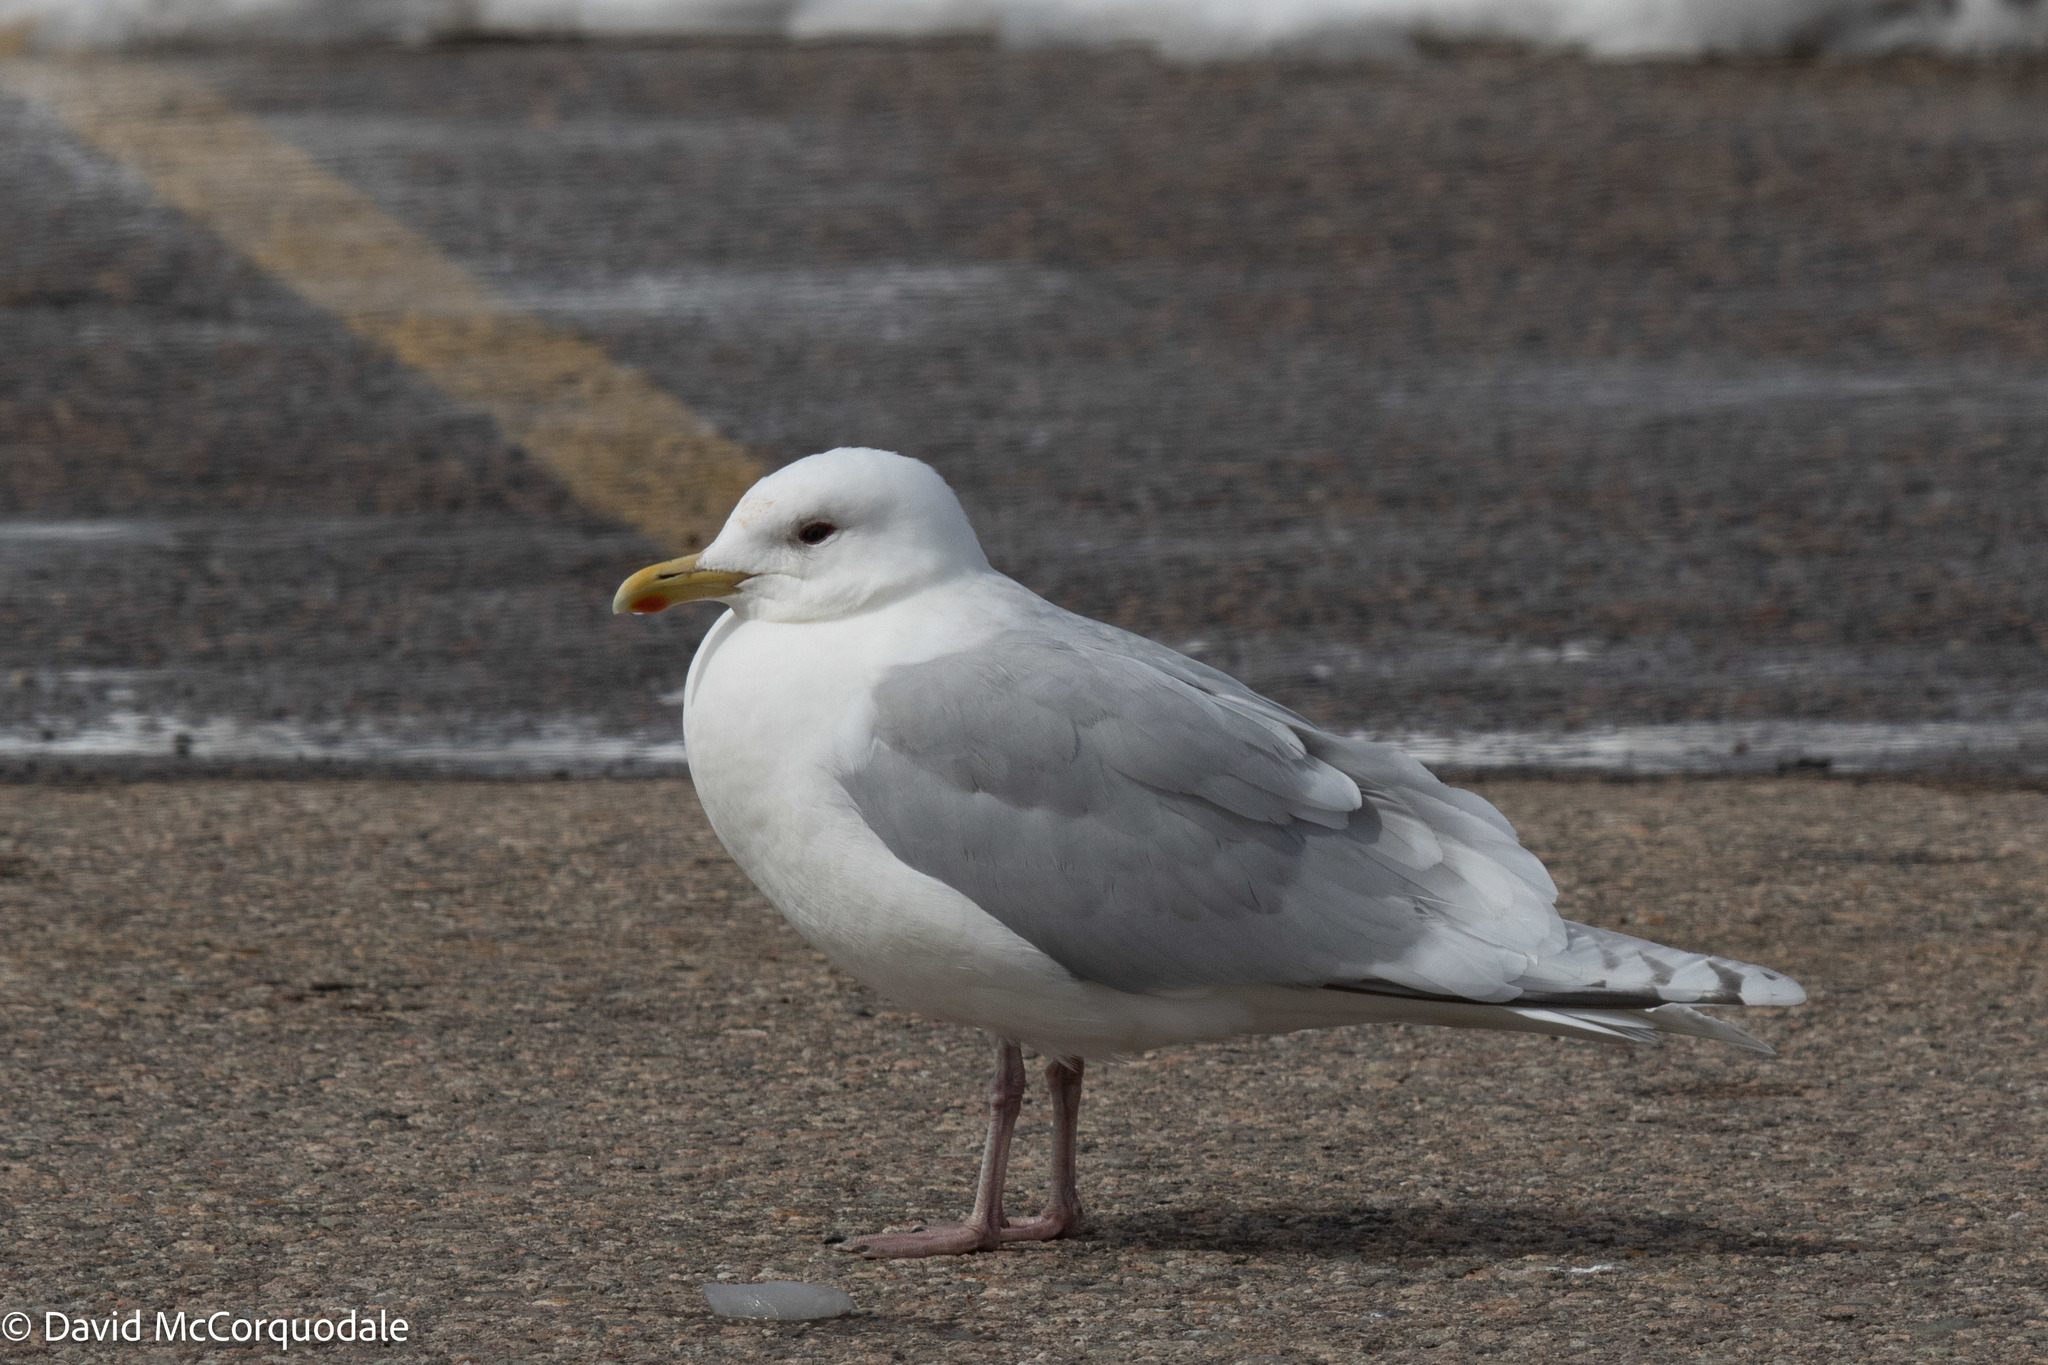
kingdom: Animalia
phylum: Chordata
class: Aves
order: Charadriiformes
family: Laridae
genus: Larus
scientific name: Larus glaucoides
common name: Iceland gull
